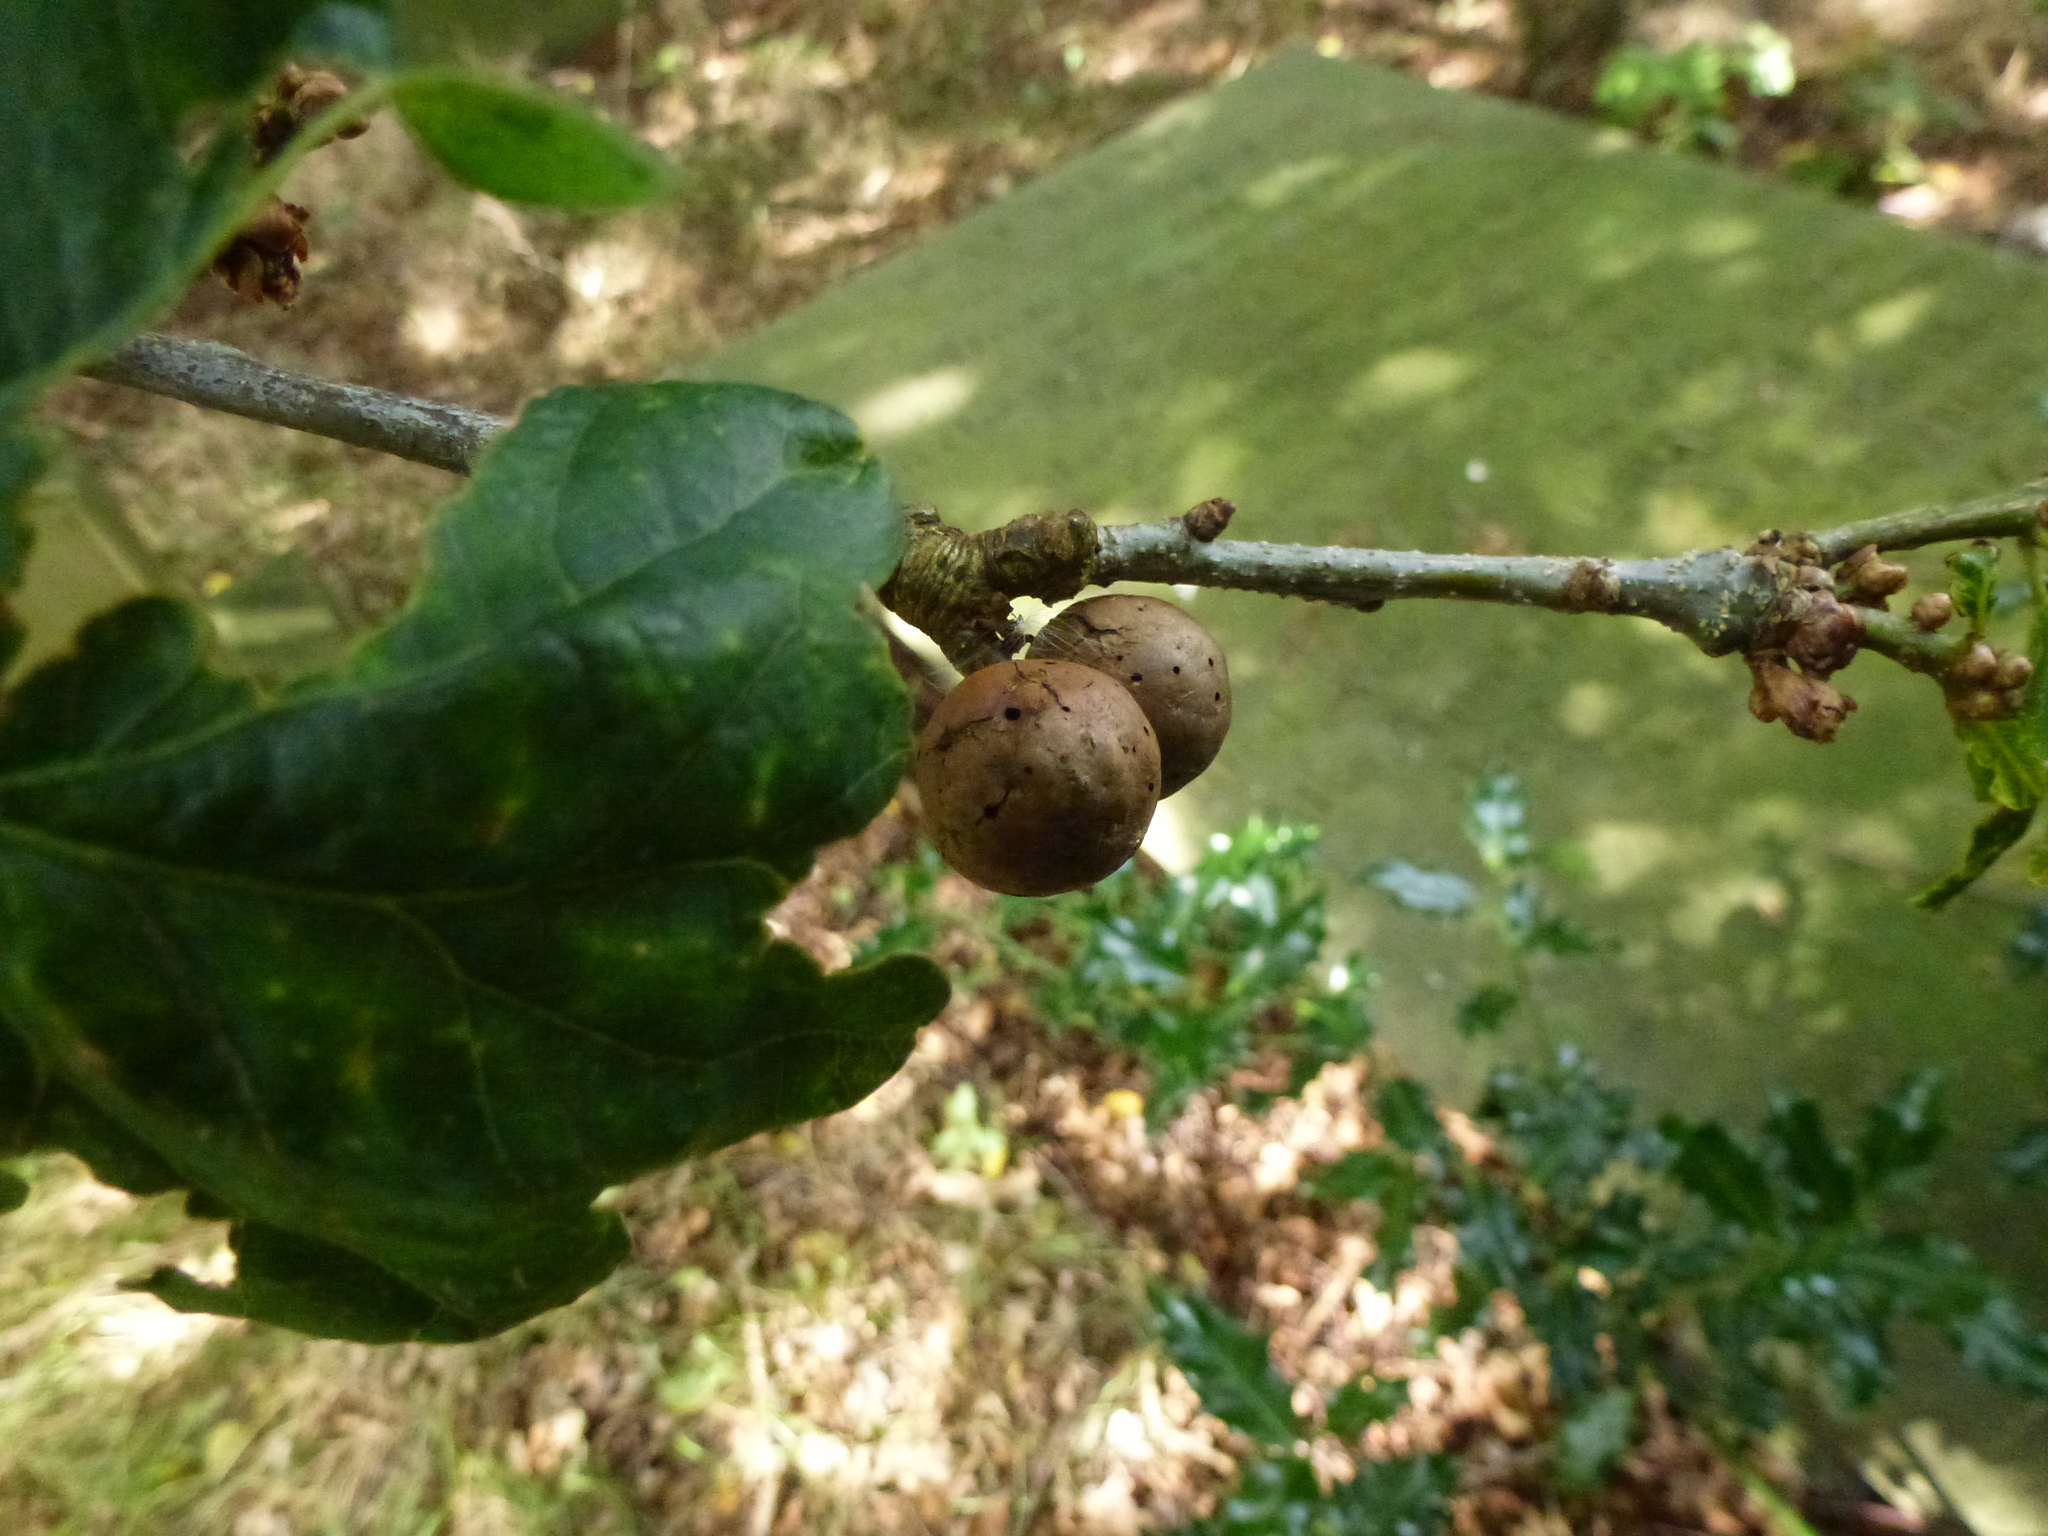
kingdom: Animalia
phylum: Arthropoda
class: Insecta
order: Hymenoptera
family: Cynipidae
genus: Andricus
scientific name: Andricus kollari
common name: Marble gall
